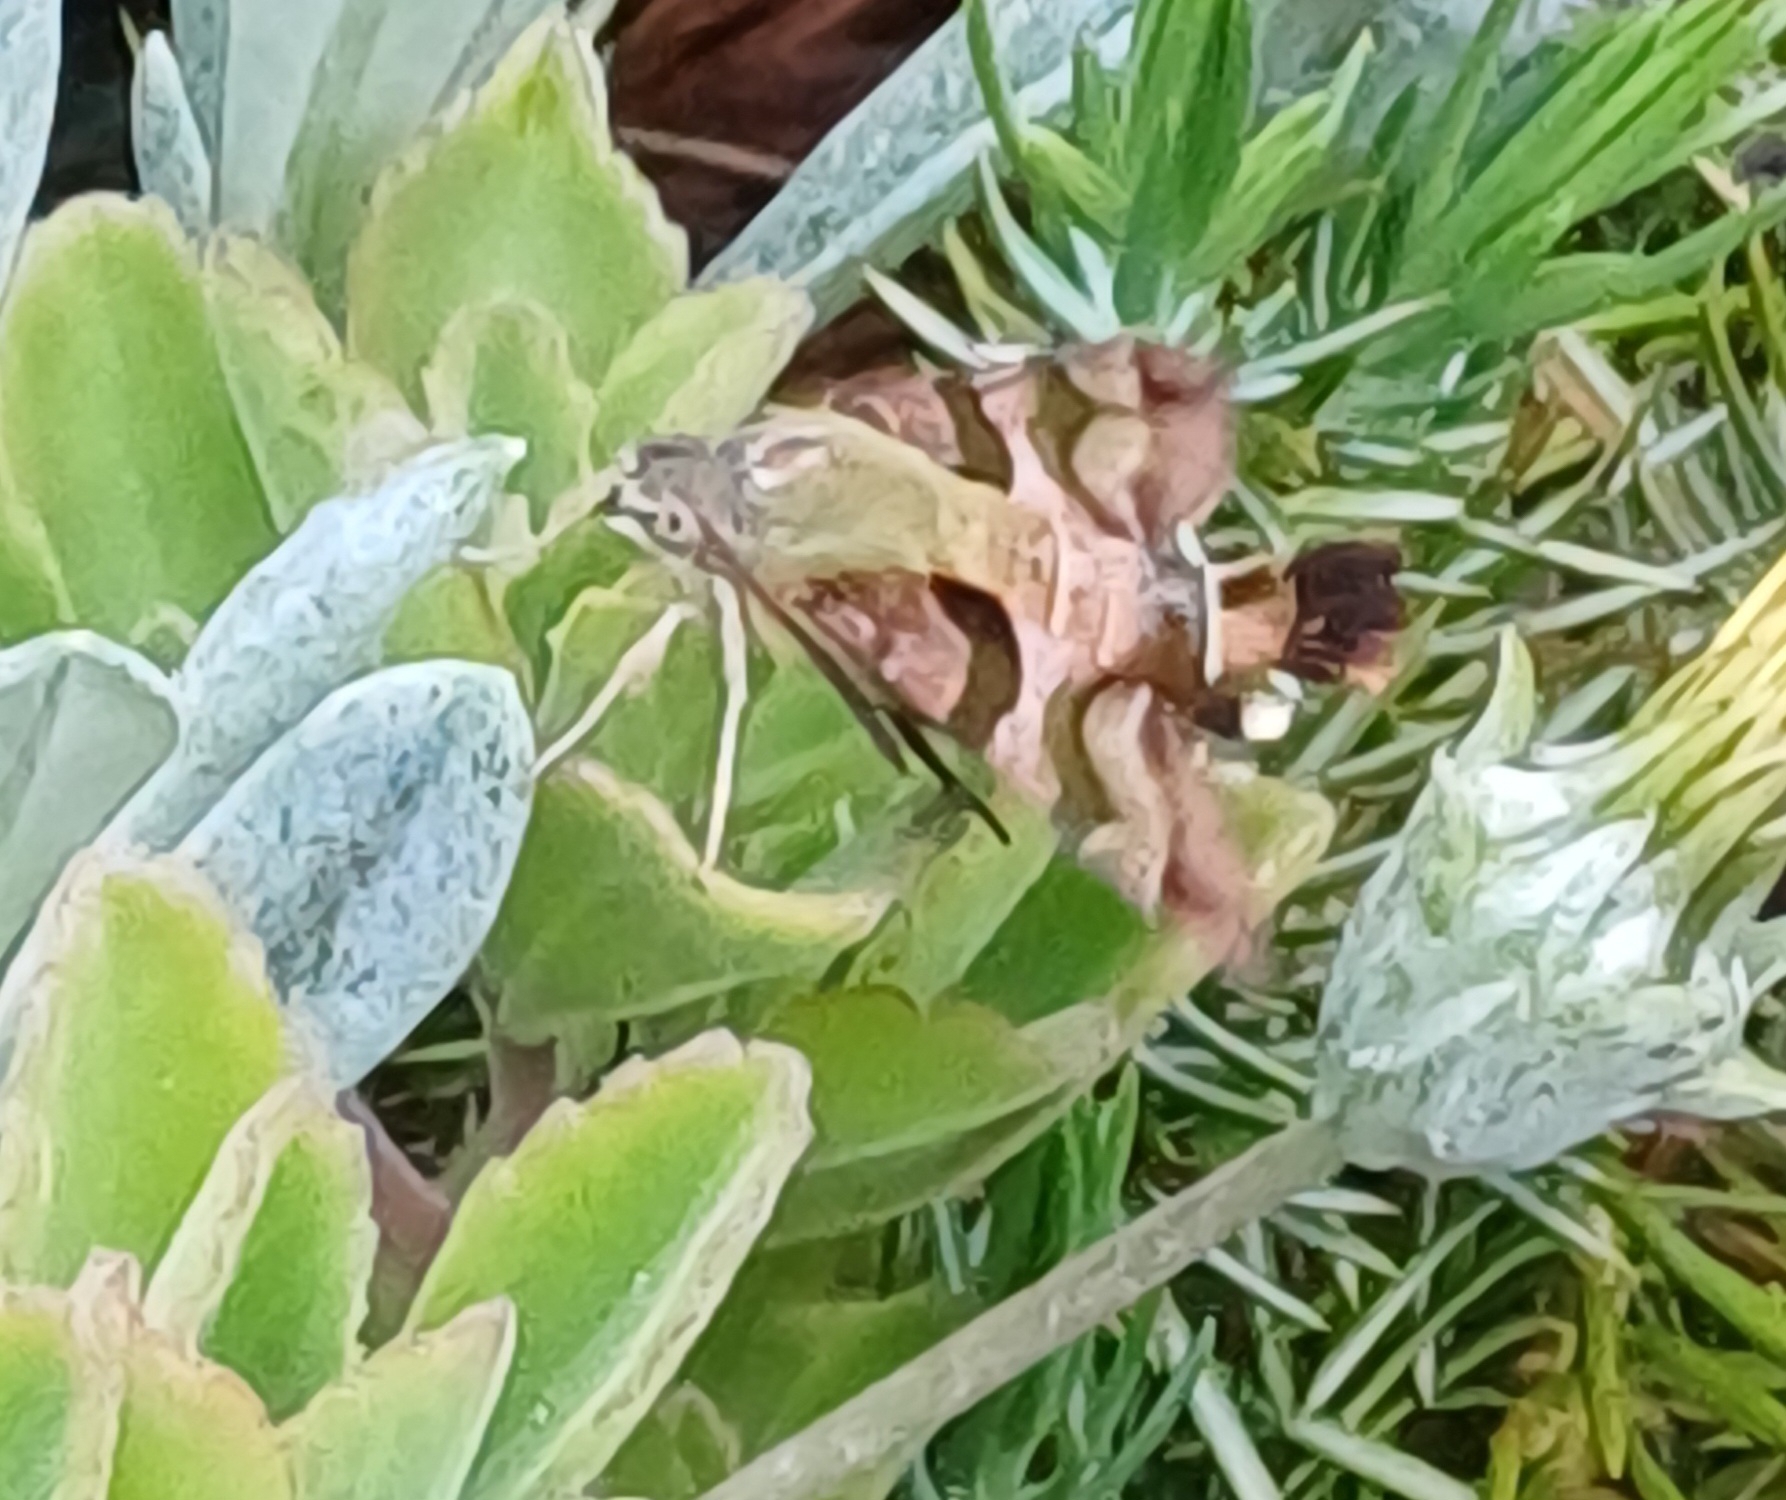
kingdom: Animalia
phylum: Arthropoda
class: Insecta
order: Lepidoptera
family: Sphingidae
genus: Macroglossum
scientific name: Macroglossum trochilus
